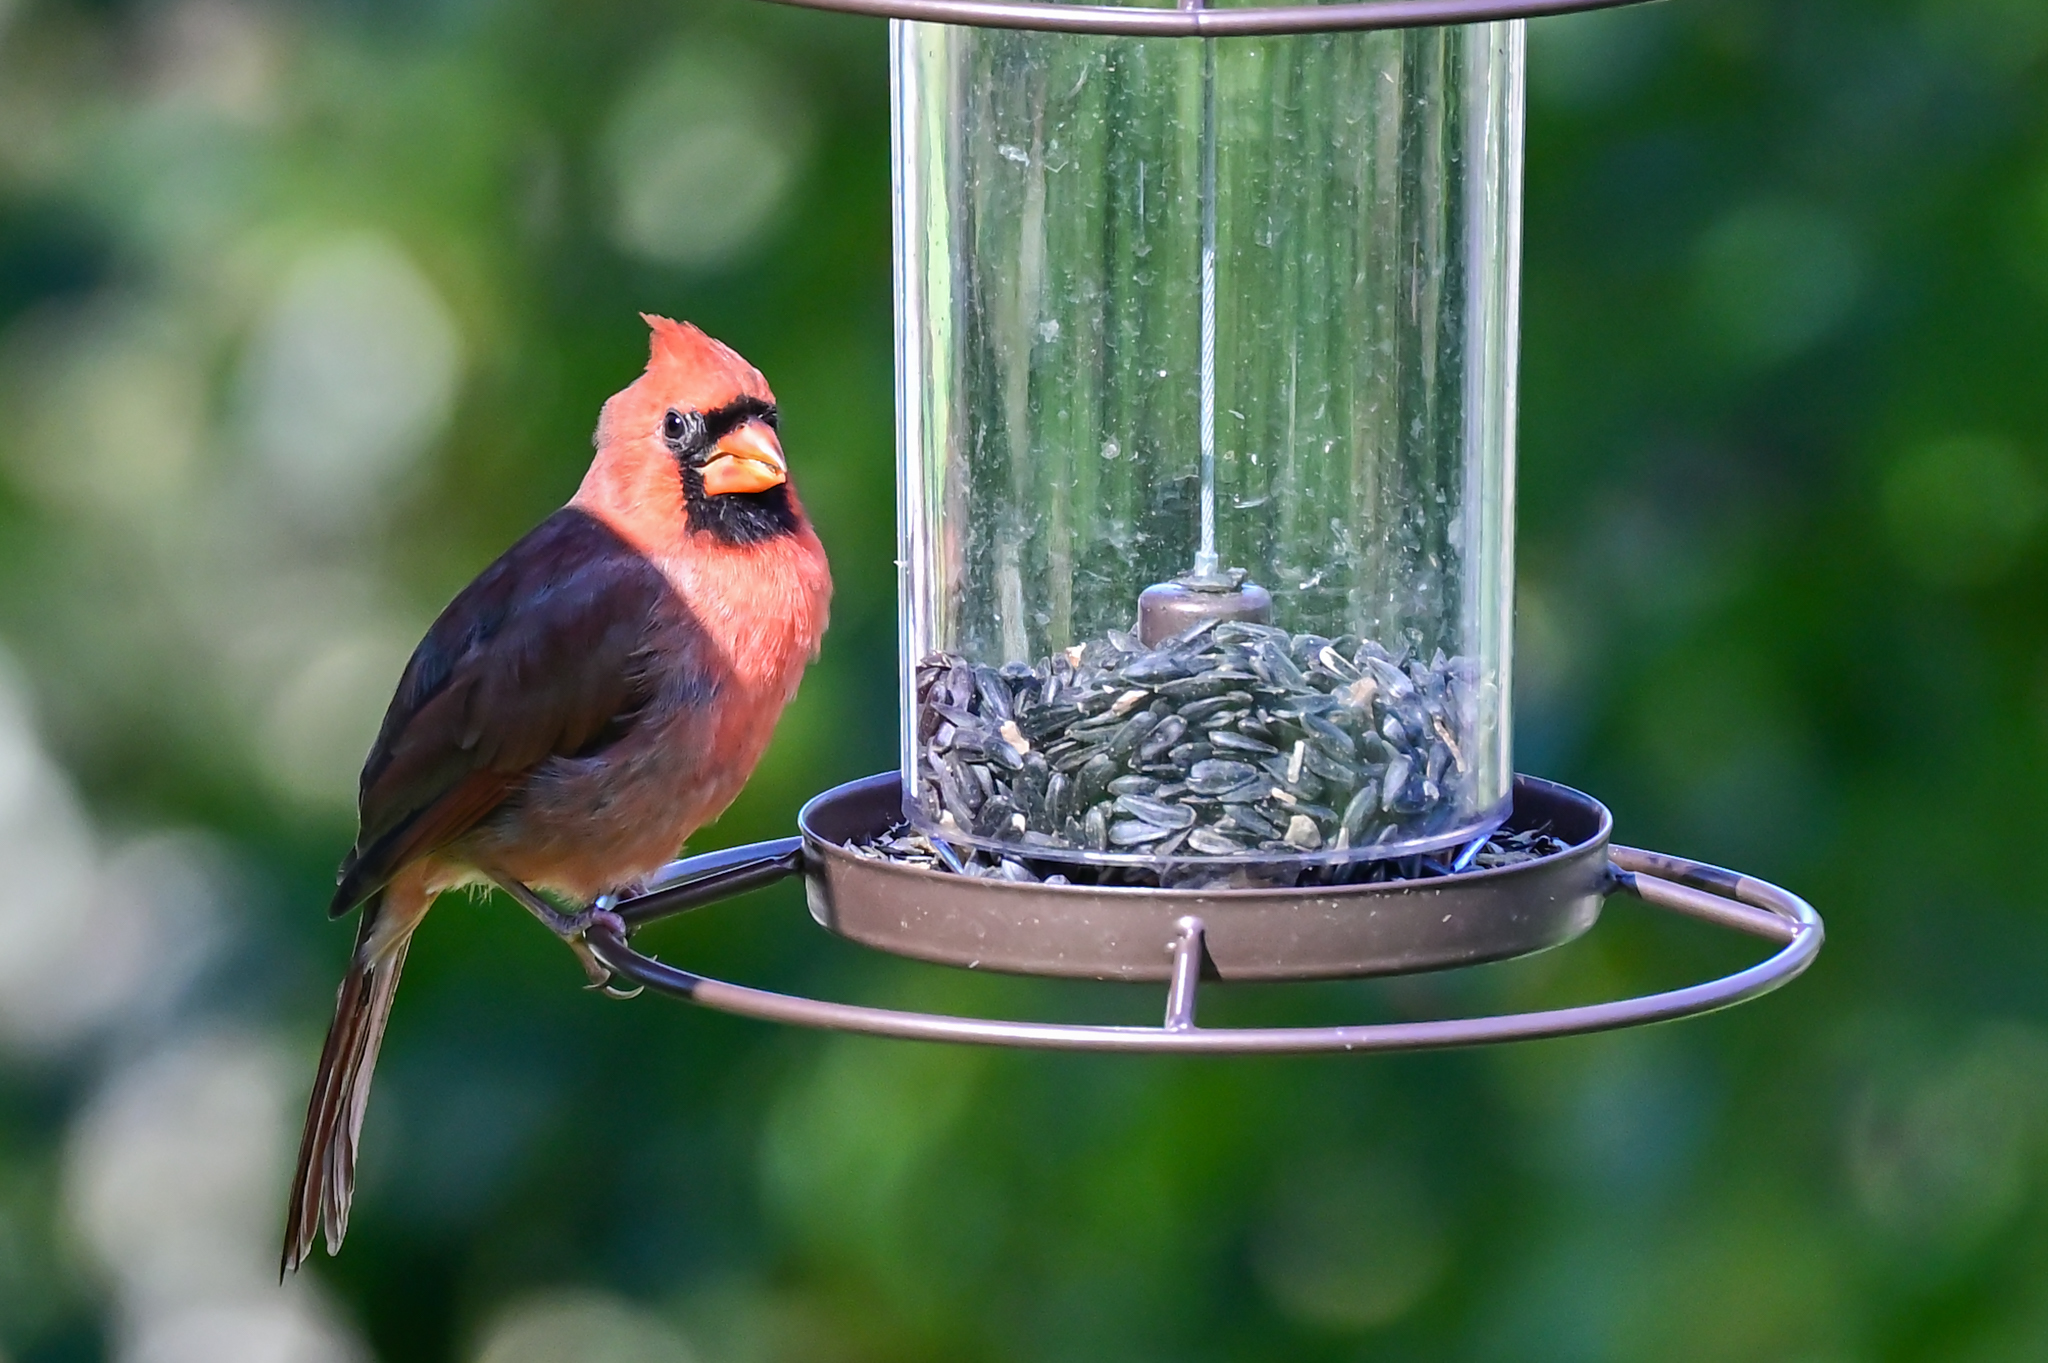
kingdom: Animalia
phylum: Chordata
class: Aves
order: Passeriformes
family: Cardinalidae
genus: Cardinalis
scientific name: Cardinalis cardinalis
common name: Northern cardinal
